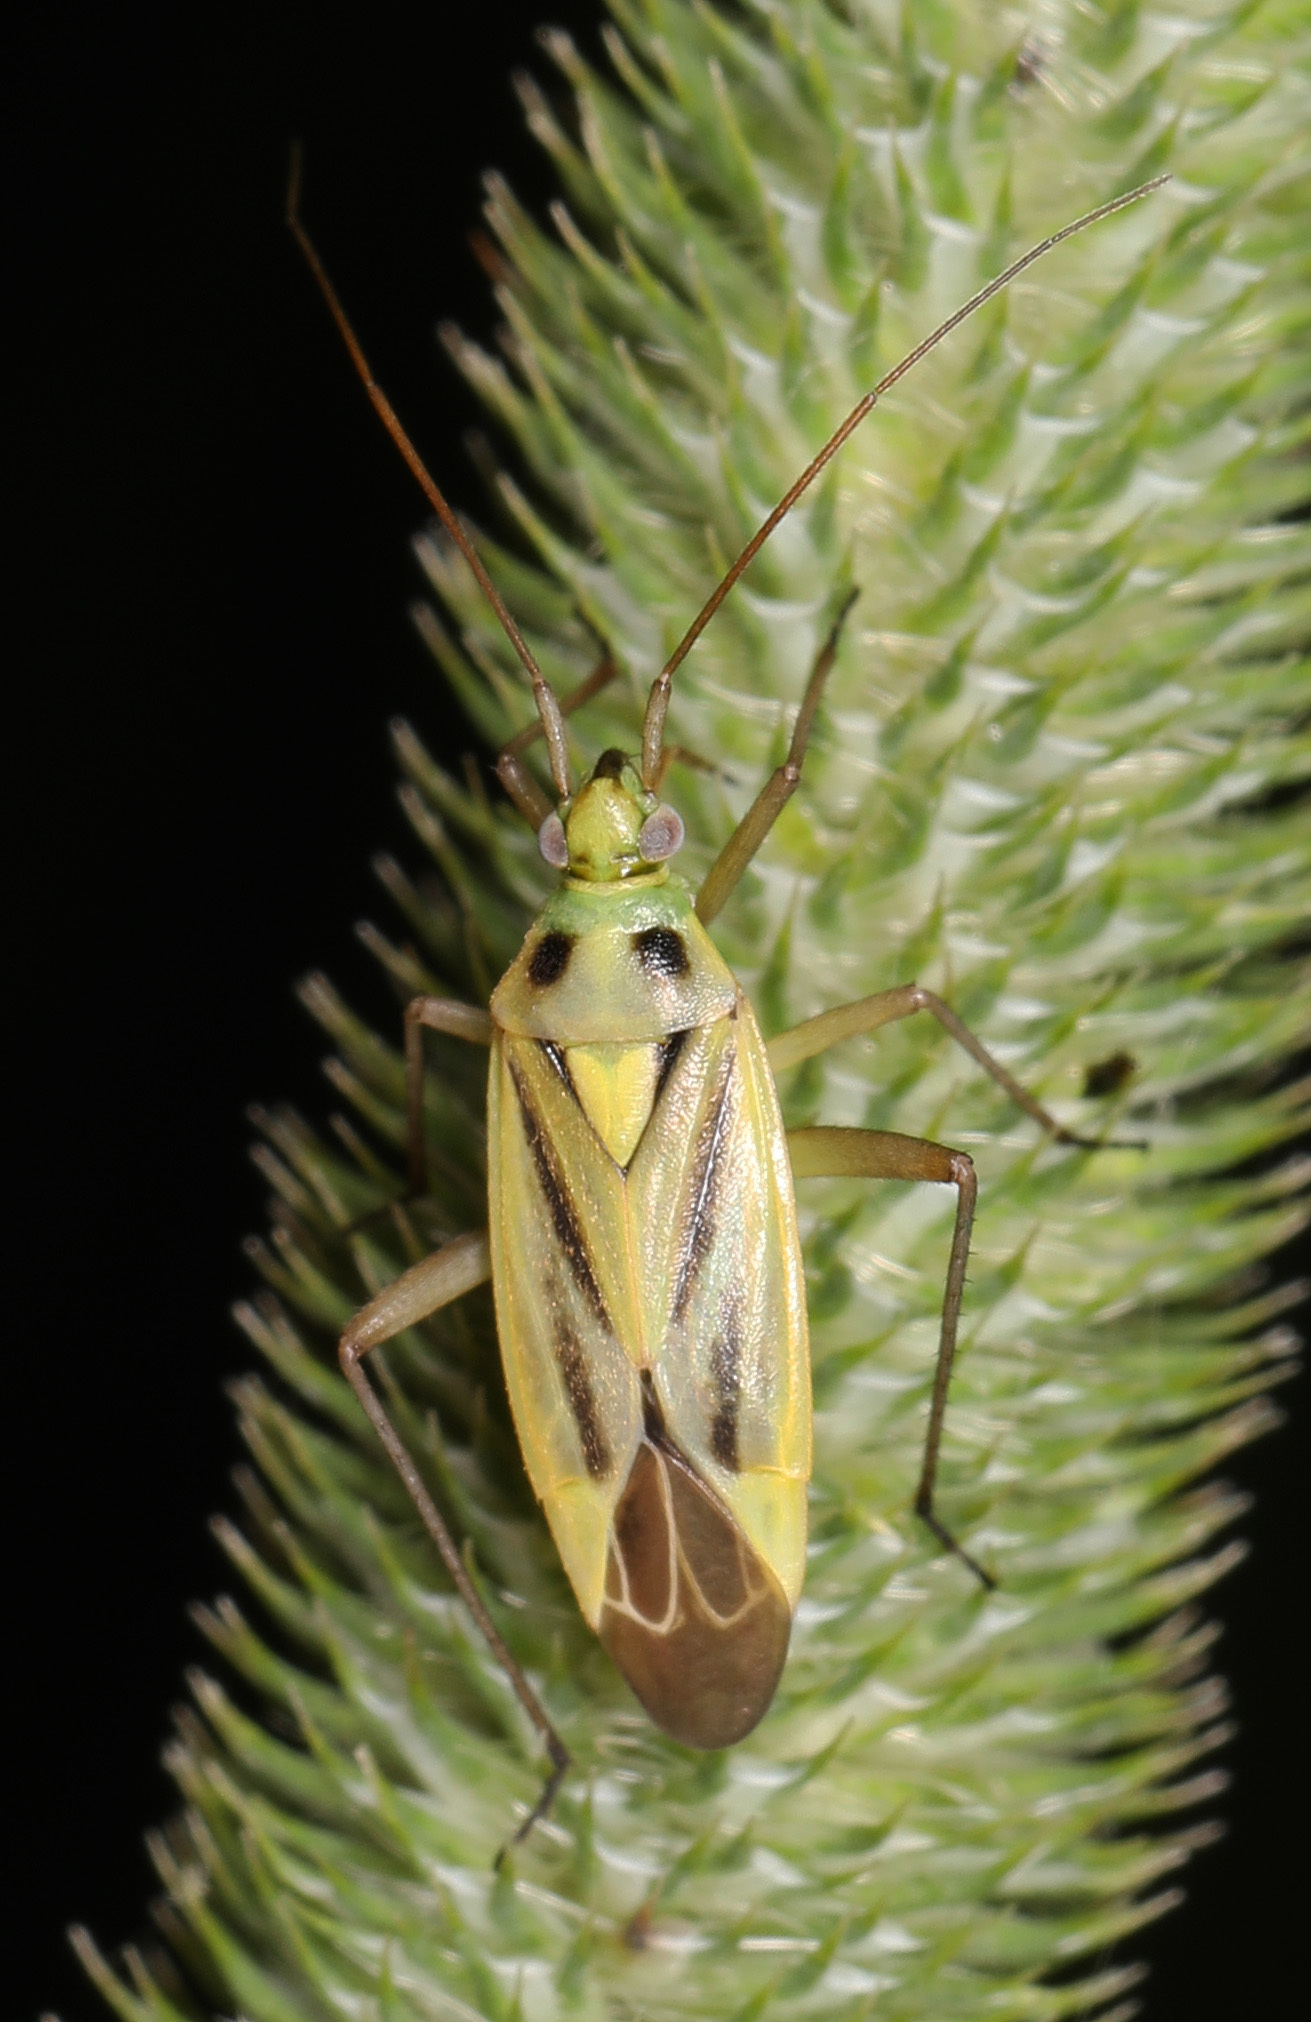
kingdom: Animalia
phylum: Arthropoda
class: Insecta
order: Hemiptera
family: Miridae
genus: Stenotus
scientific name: Stenotus binotatus
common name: Plant bug
